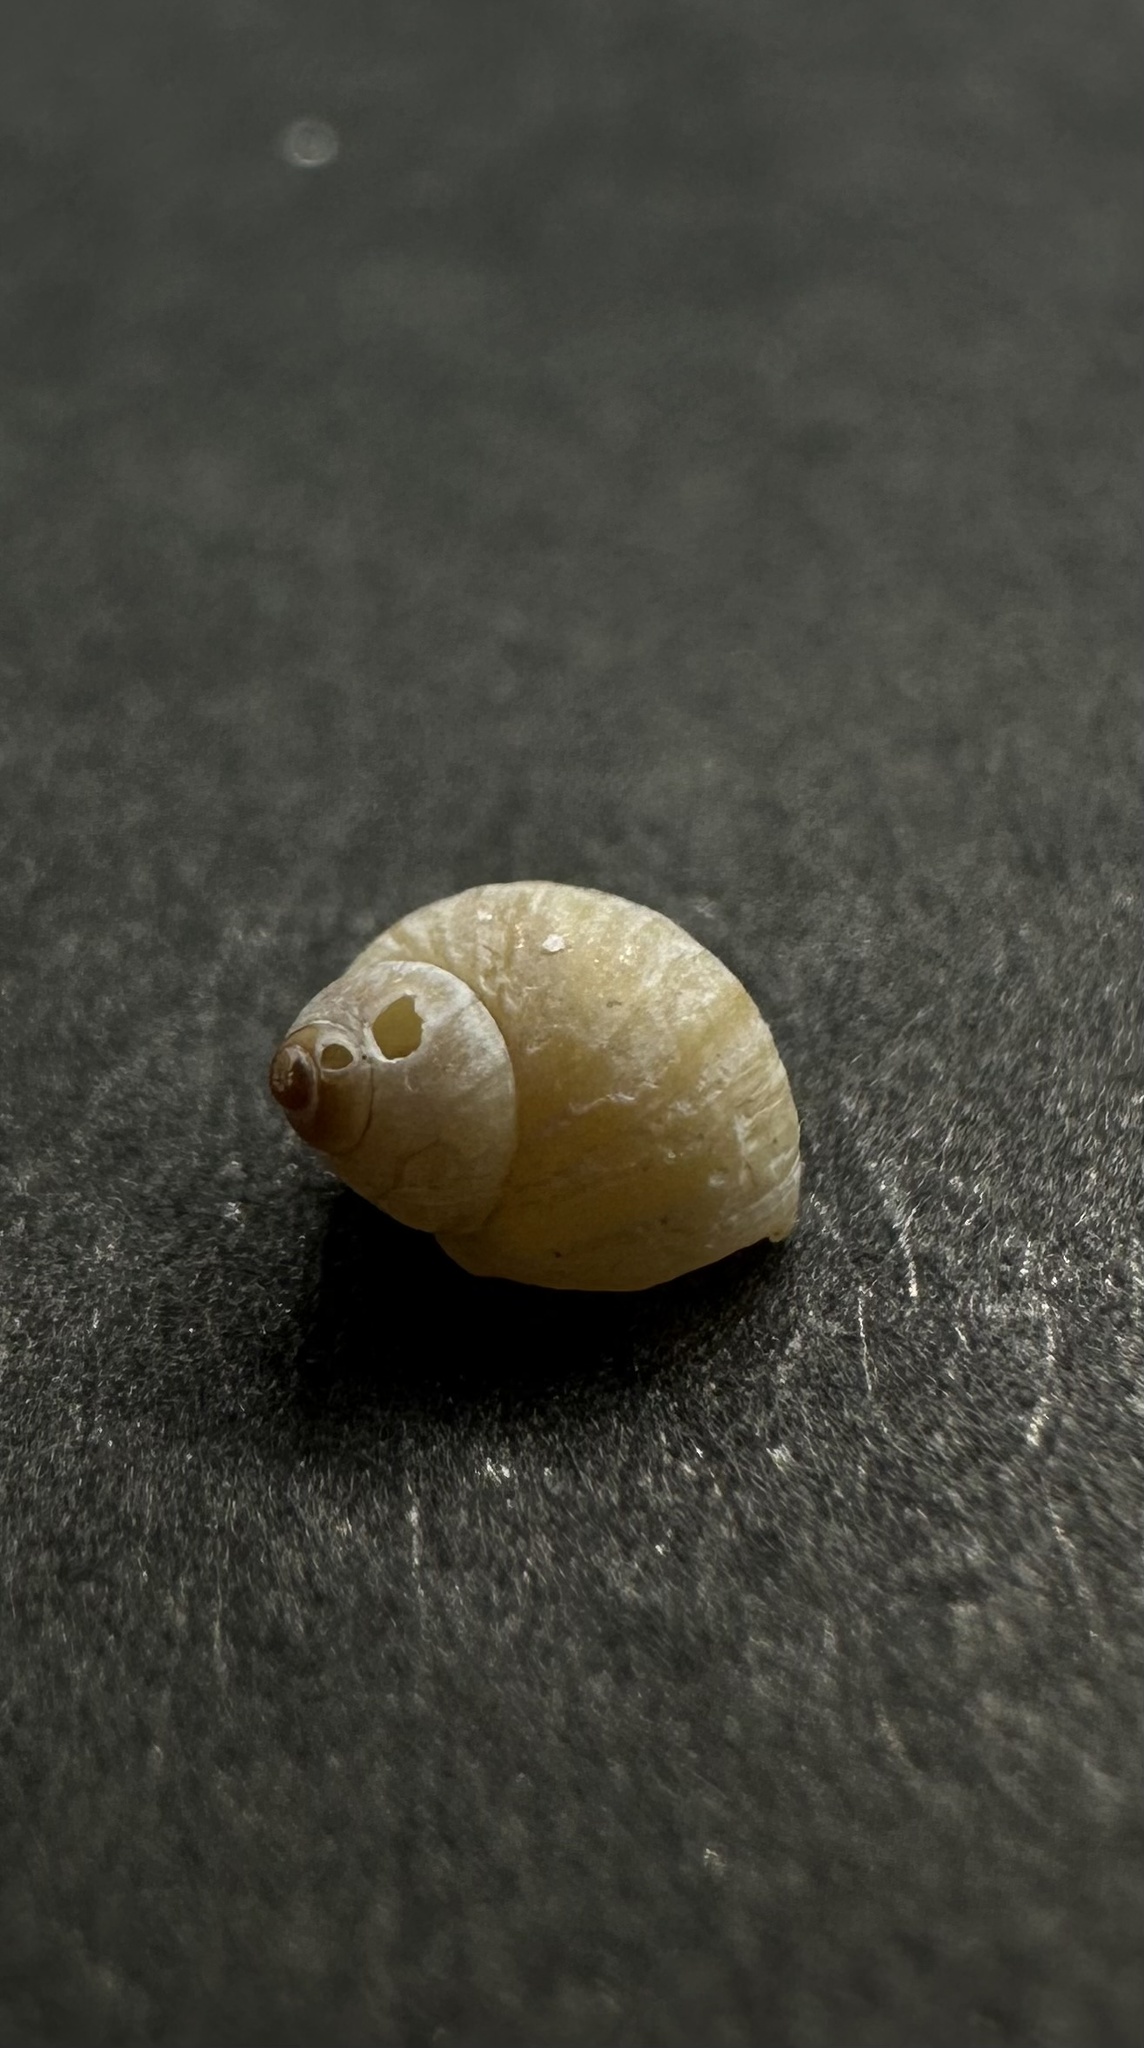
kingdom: Animalia
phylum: Mollusca
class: Gastropoda
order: Littorinimorpha
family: Littorinidae
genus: Lacuna
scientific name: Lacuna vincta
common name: Banded chink shell
